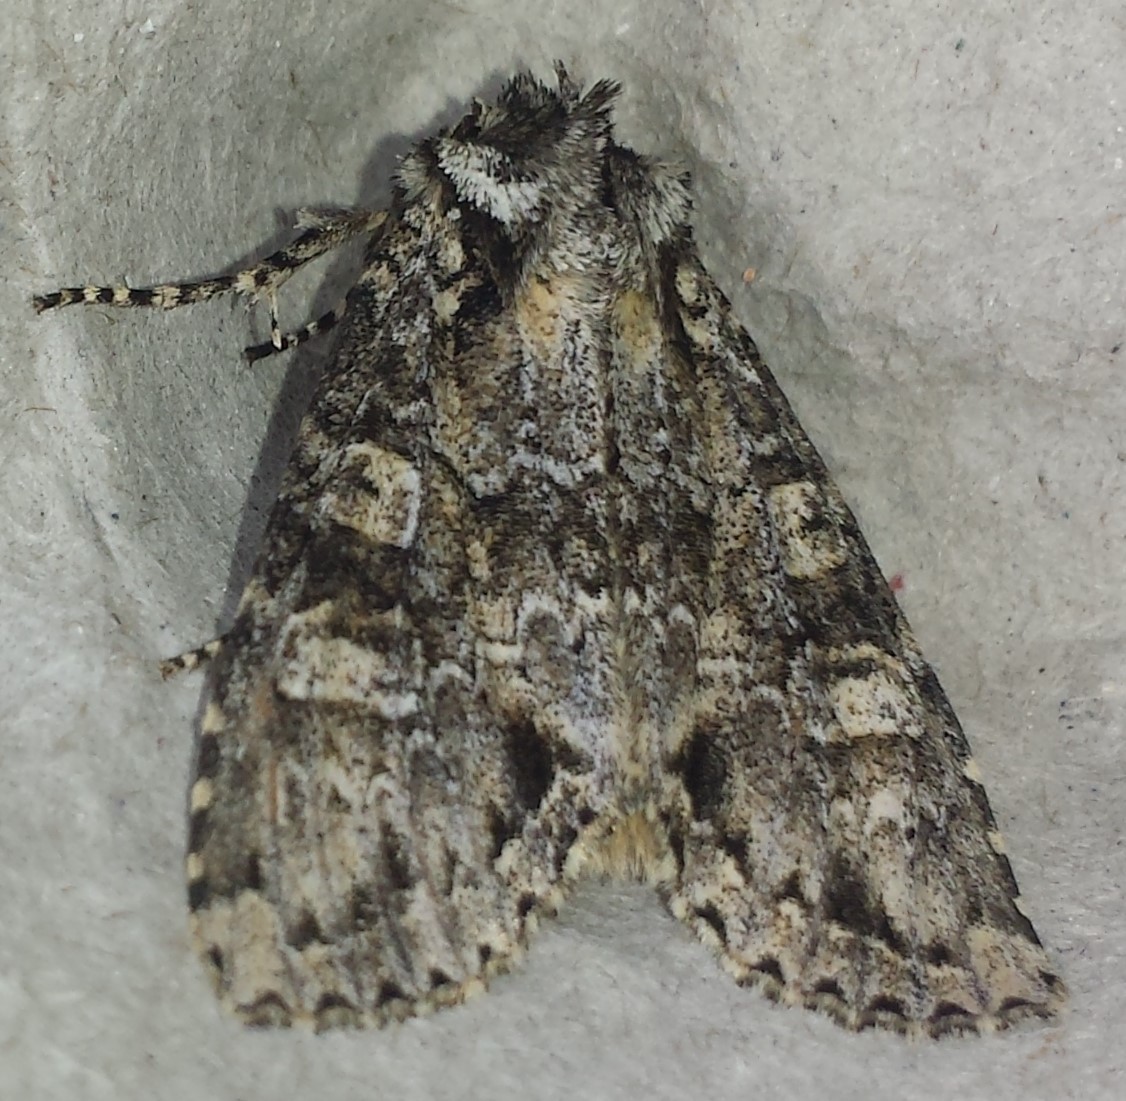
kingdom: Animalia
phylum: Arthropoda
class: Insecta
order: Lepidoptera
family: Noctuidae
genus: Polia
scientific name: Polia imbrifera
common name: Cloudy arches moth
